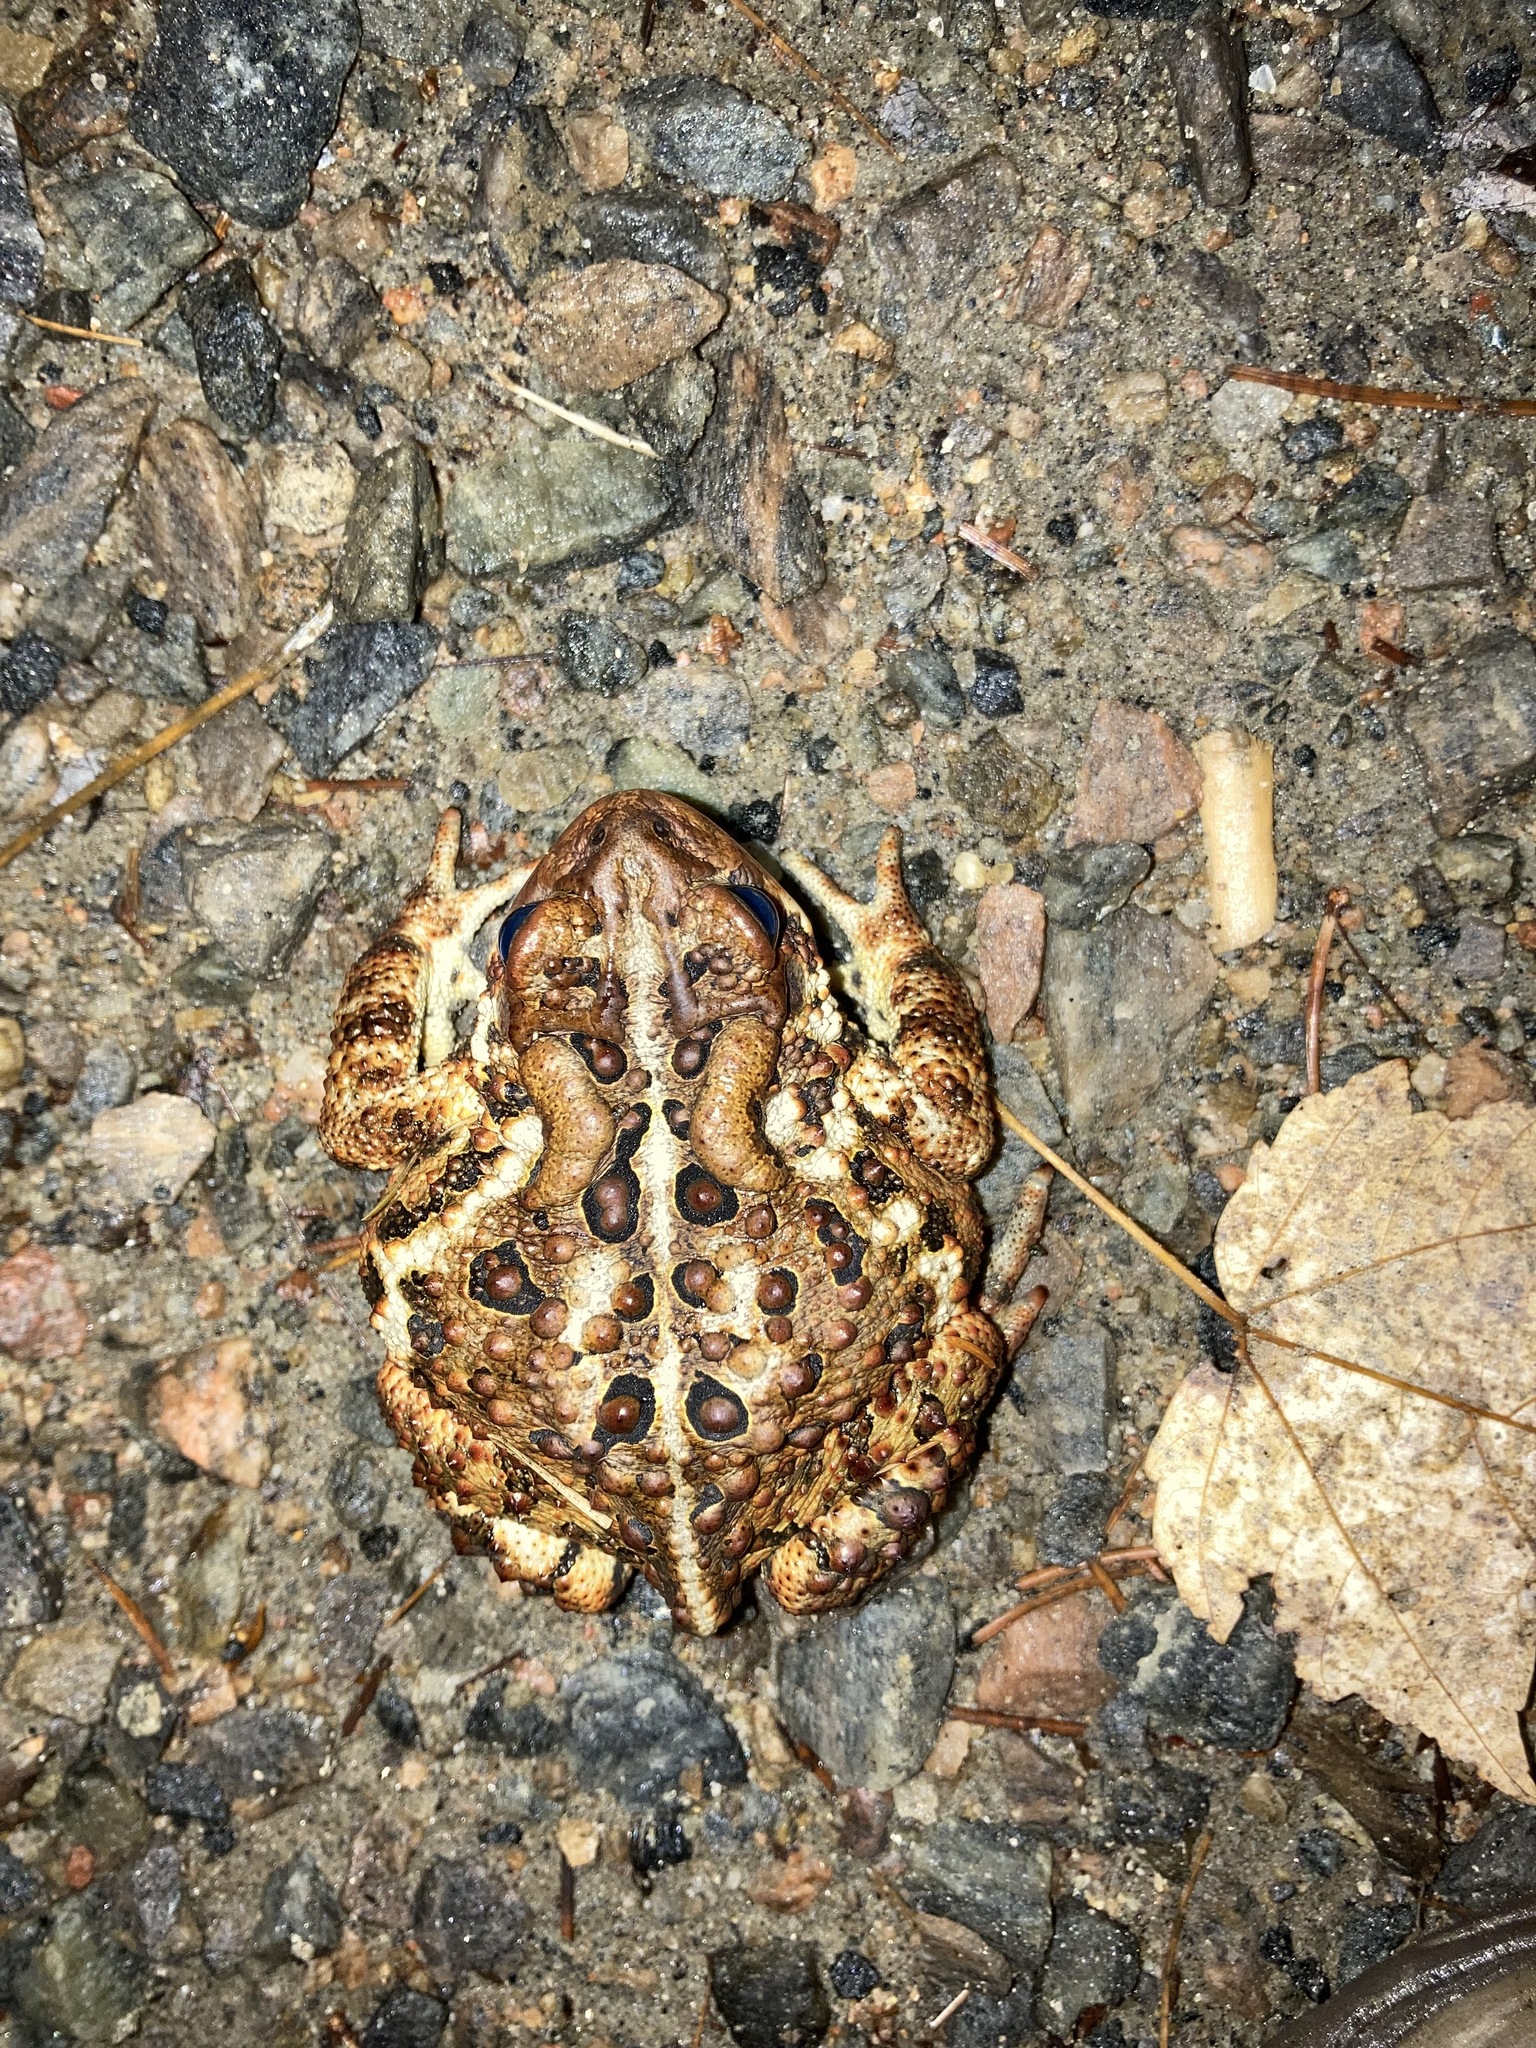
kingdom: Animalia
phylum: Chordata
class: Amphibia
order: Anura
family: Bufonidae
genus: Anaxyrus
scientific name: Anaxyrus americanus
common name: American toad
